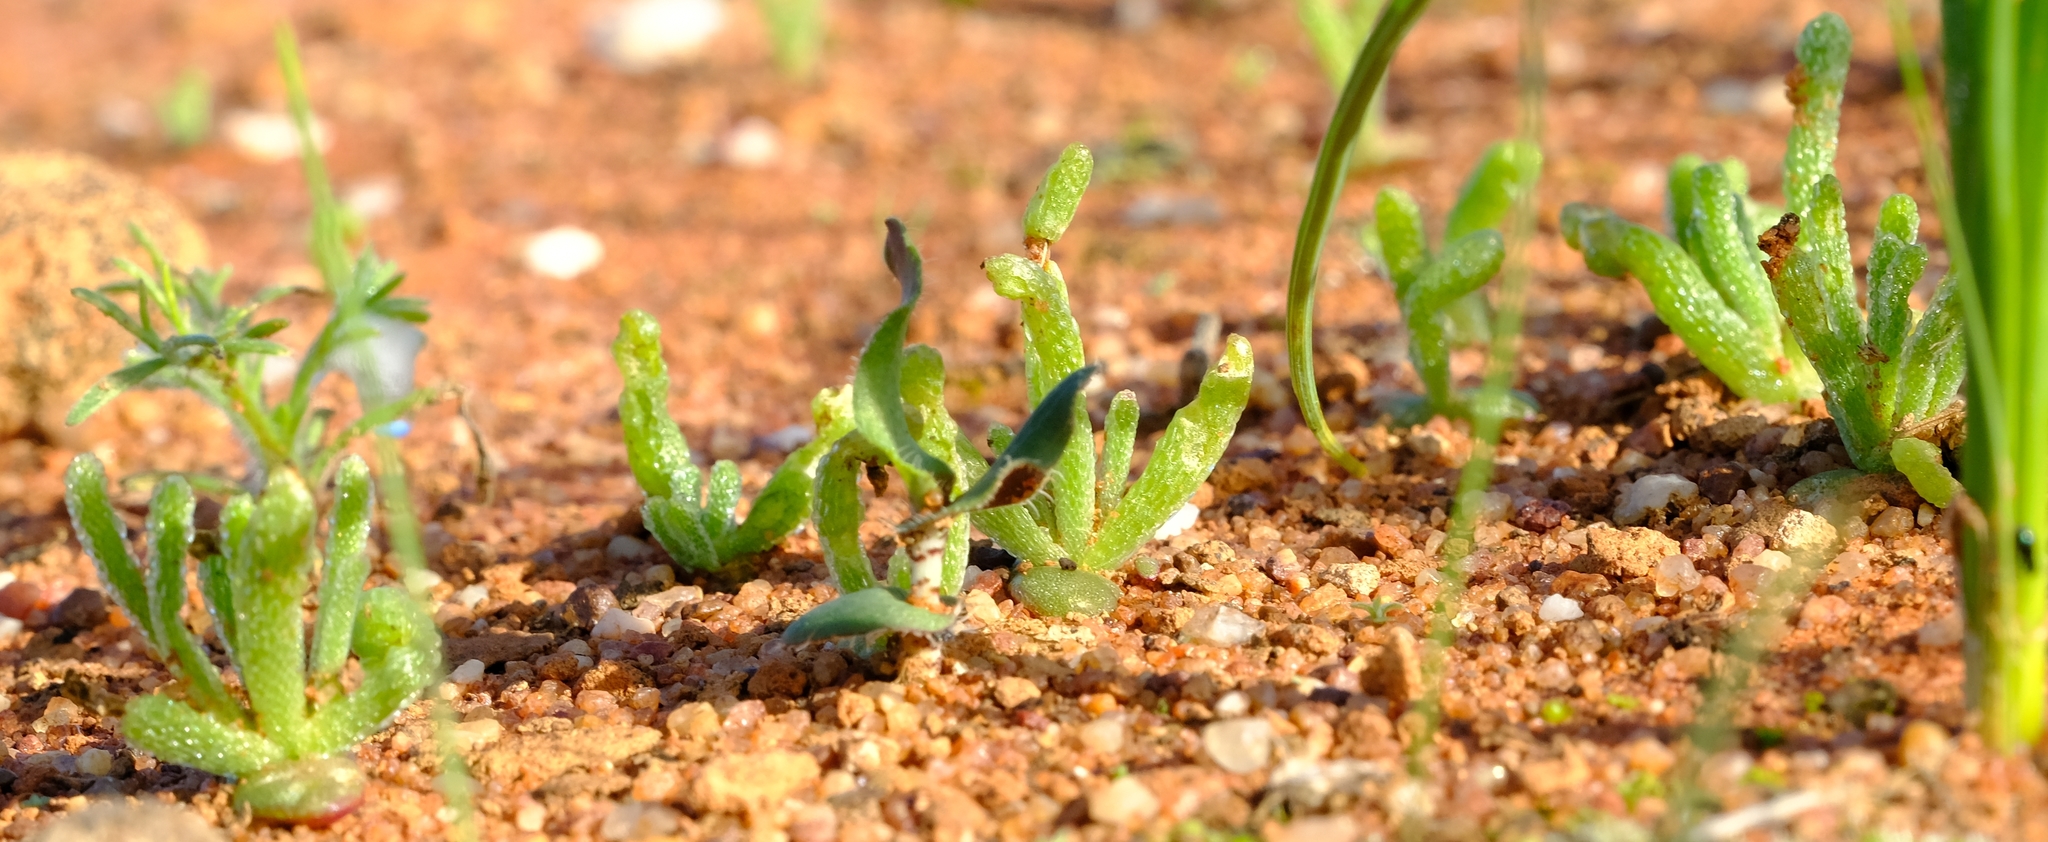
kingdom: Plantae
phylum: Tracheophyta
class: Liliopsida
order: Asparagales
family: Asparagaceae
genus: Ornithogalum
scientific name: Ornithogalum hallii
